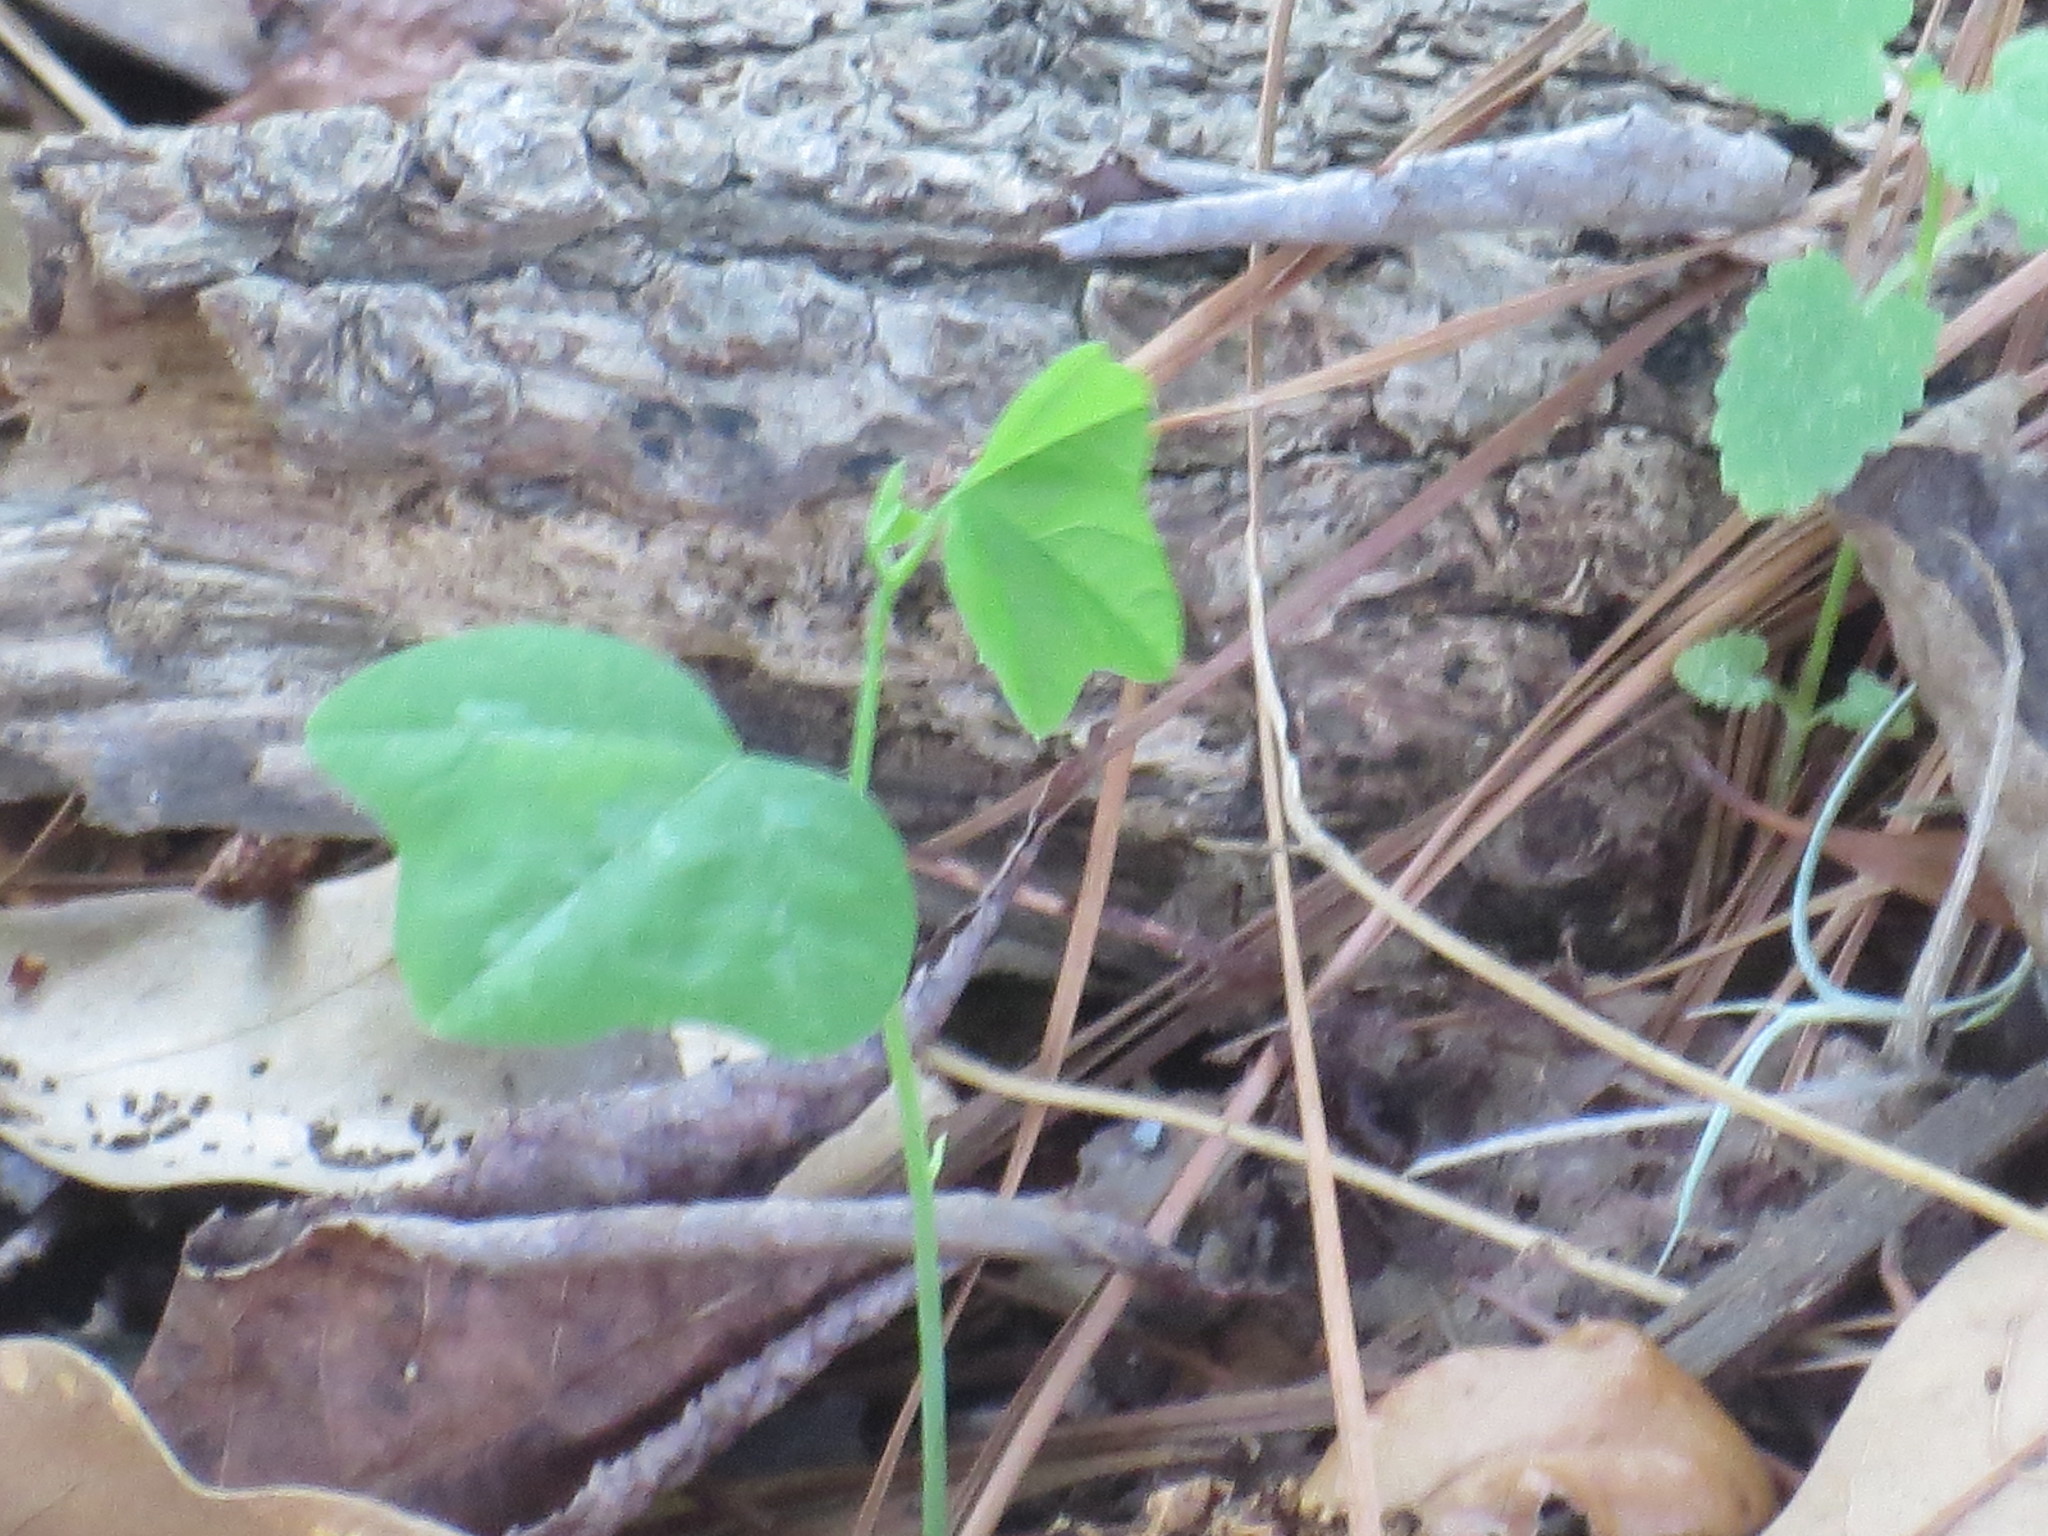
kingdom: Plantae
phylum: Tracheophyta
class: Magnoliopsida
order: Malpighiales
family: Passifloraceae
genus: Passiflora
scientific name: Passiflora lutea
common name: Yellow passionflower
